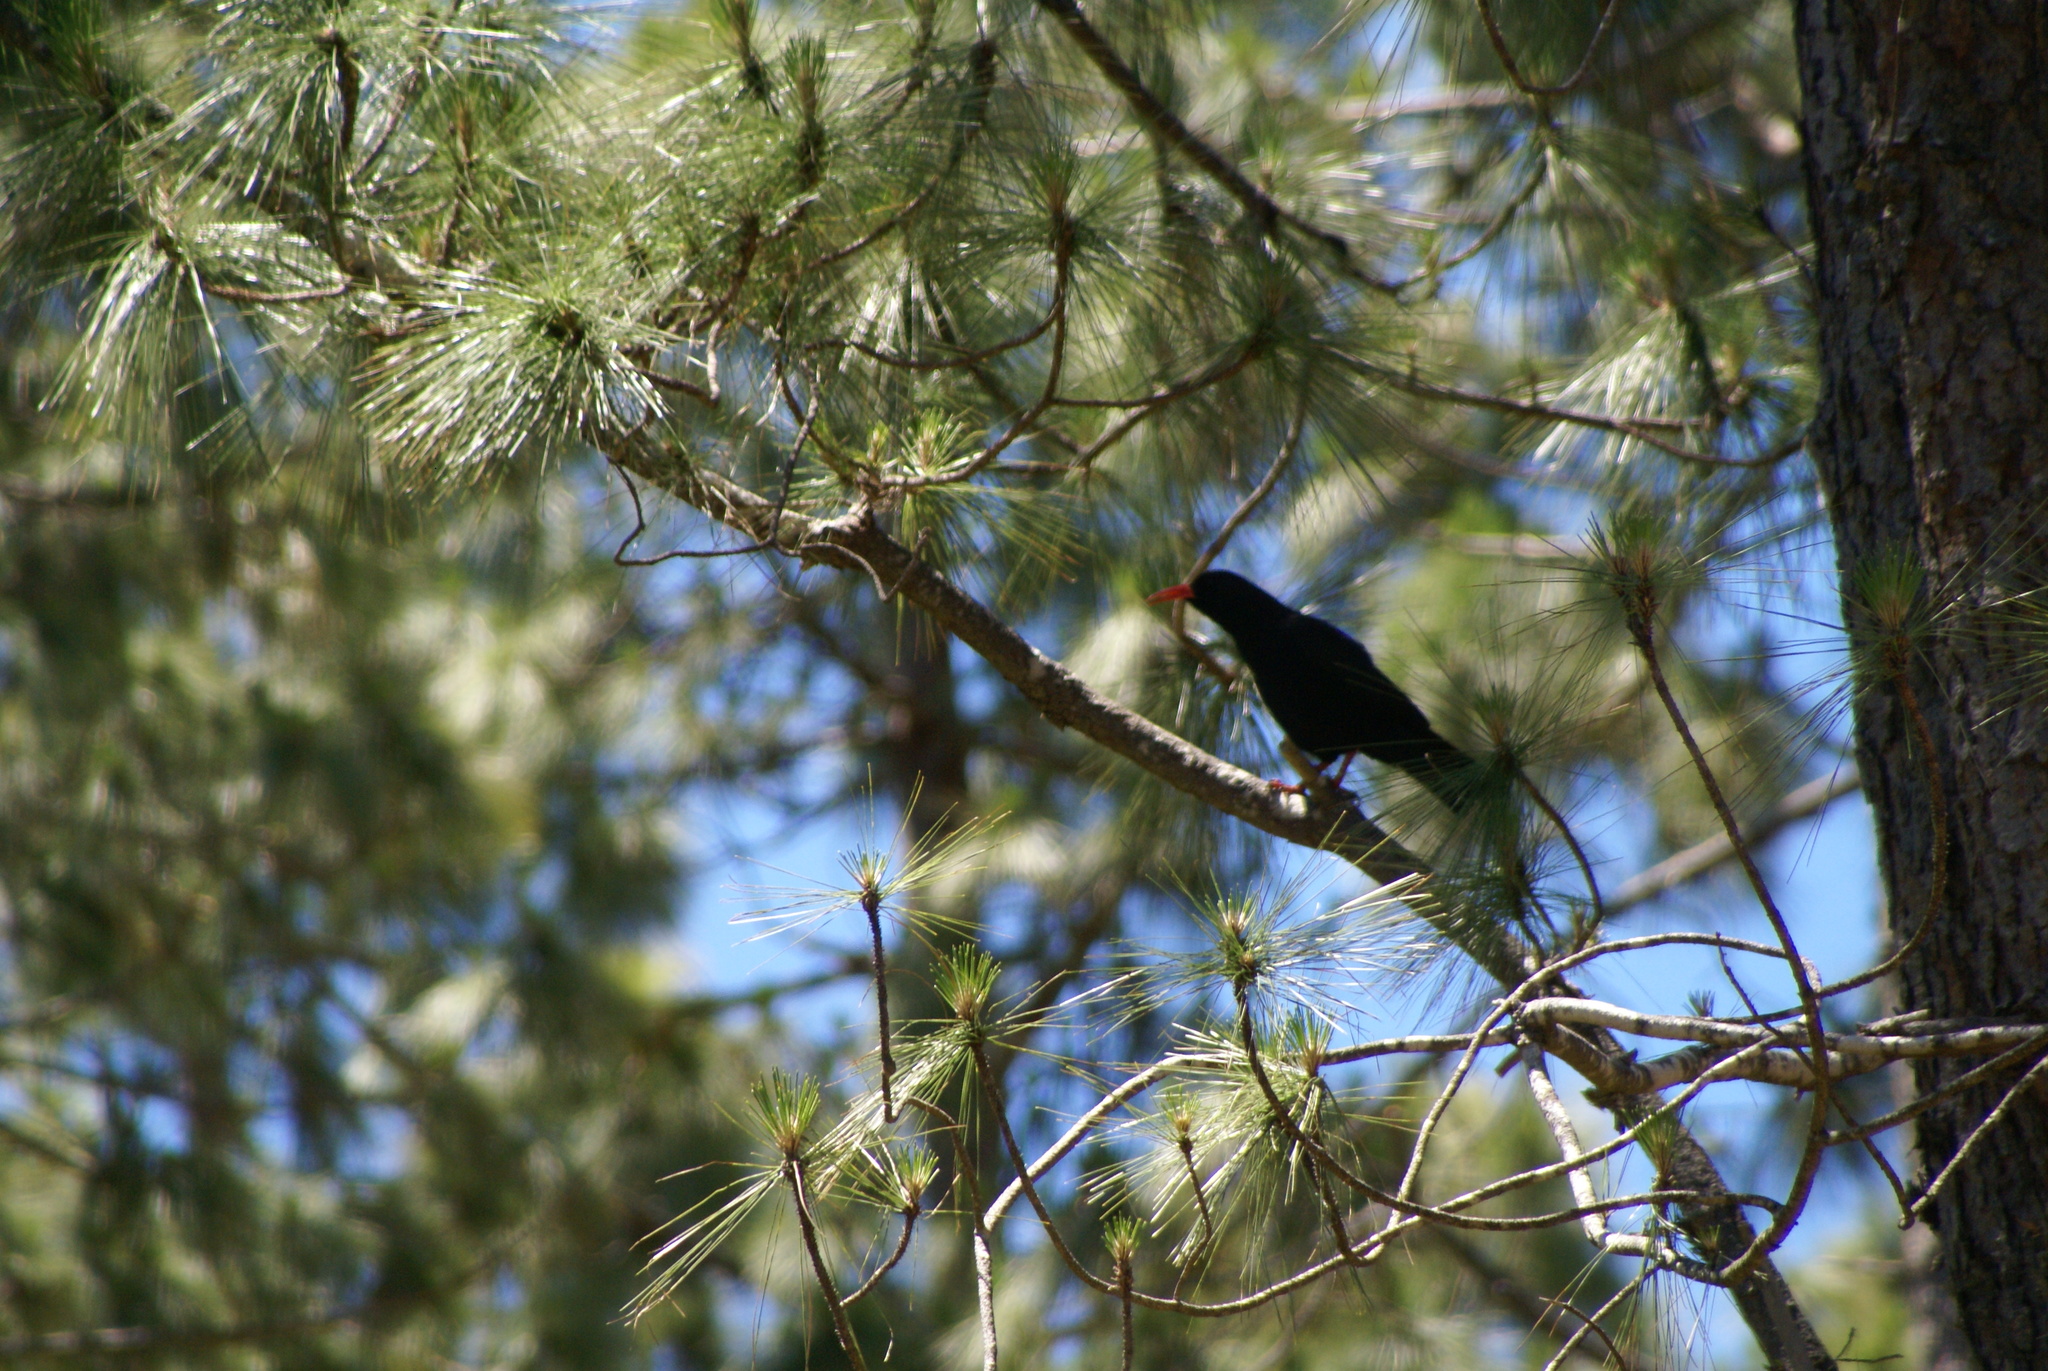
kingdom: Animalia
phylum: Chordata
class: Aves
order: Passeriformes
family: Corvidae
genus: Pyrrhocorax
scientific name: Pyrrhocorax pyrrhocorax
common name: Red-billed chough
